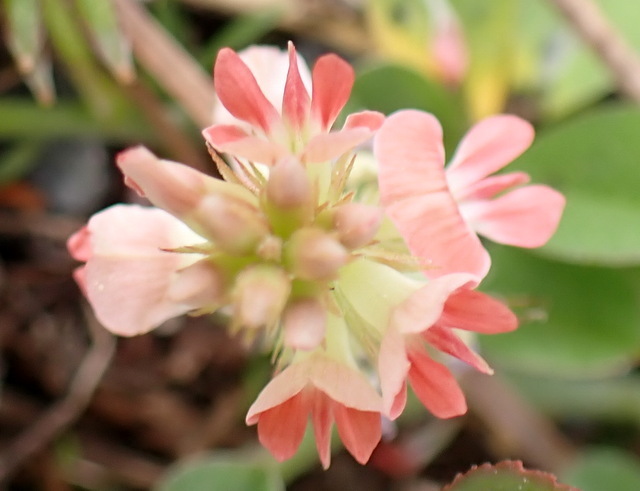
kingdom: Plantae
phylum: Tracheophyta
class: Magnoliopsida
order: Fabales
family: Fabaceae
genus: Indigofera
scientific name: Indigofera spicata
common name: Creeping indigo
